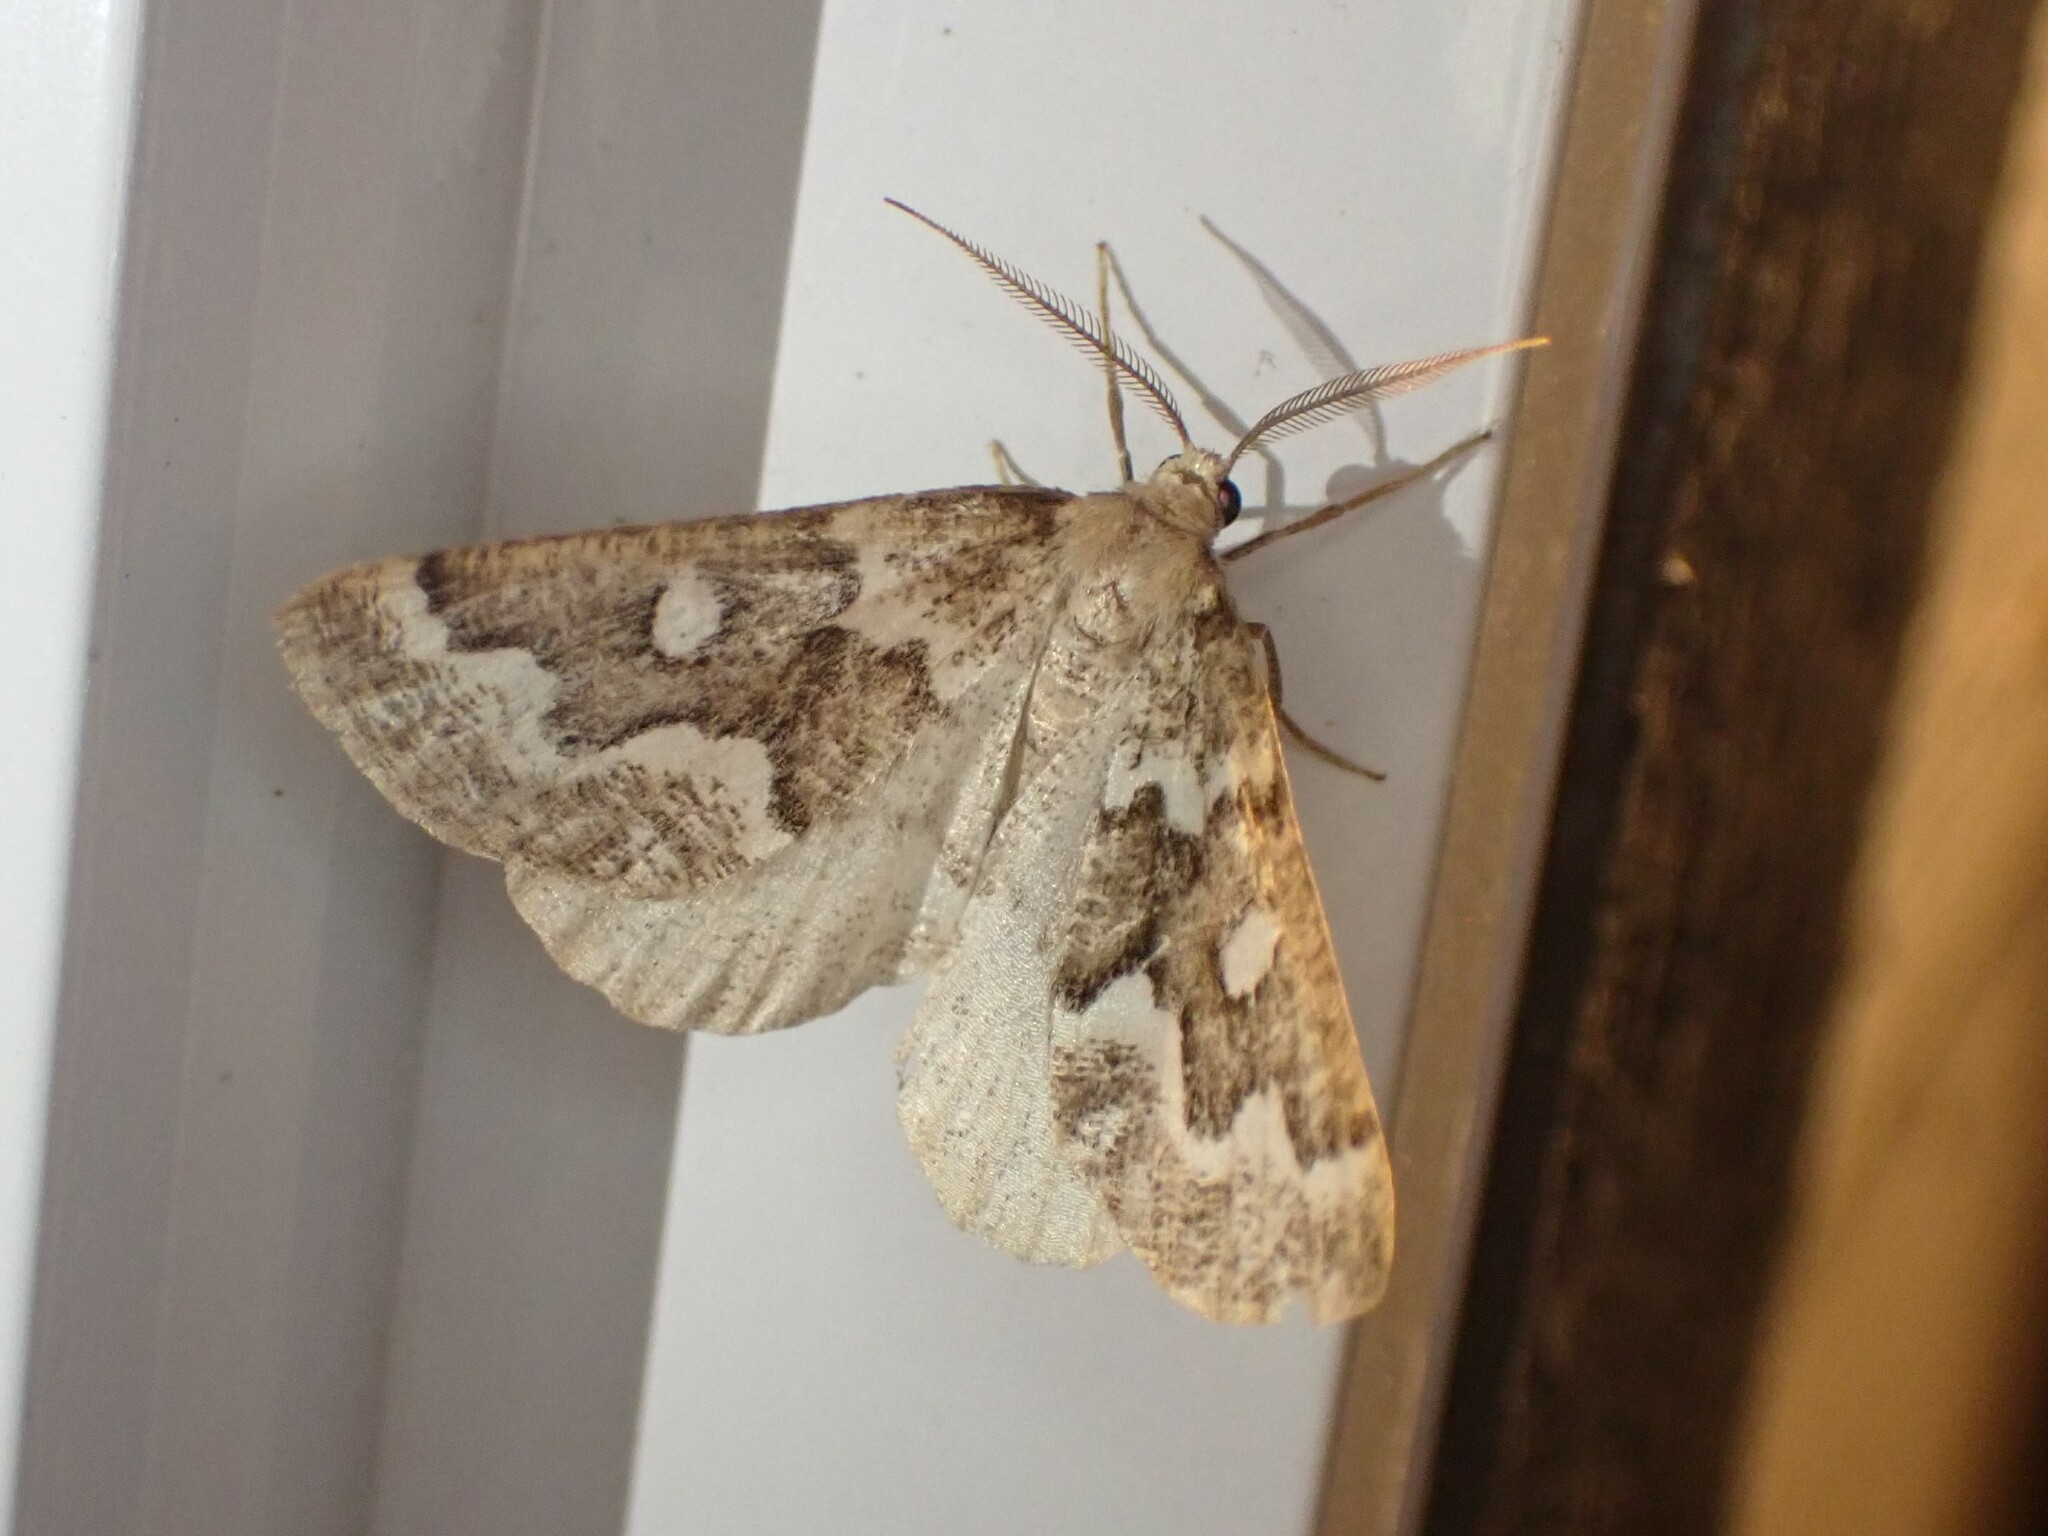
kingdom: Animalia
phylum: Arthropoda
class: Insecta
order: Lepidoptera
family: Geometridae
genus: Caripeta
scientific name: Caripeta divisata
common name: Gray spruce looper
